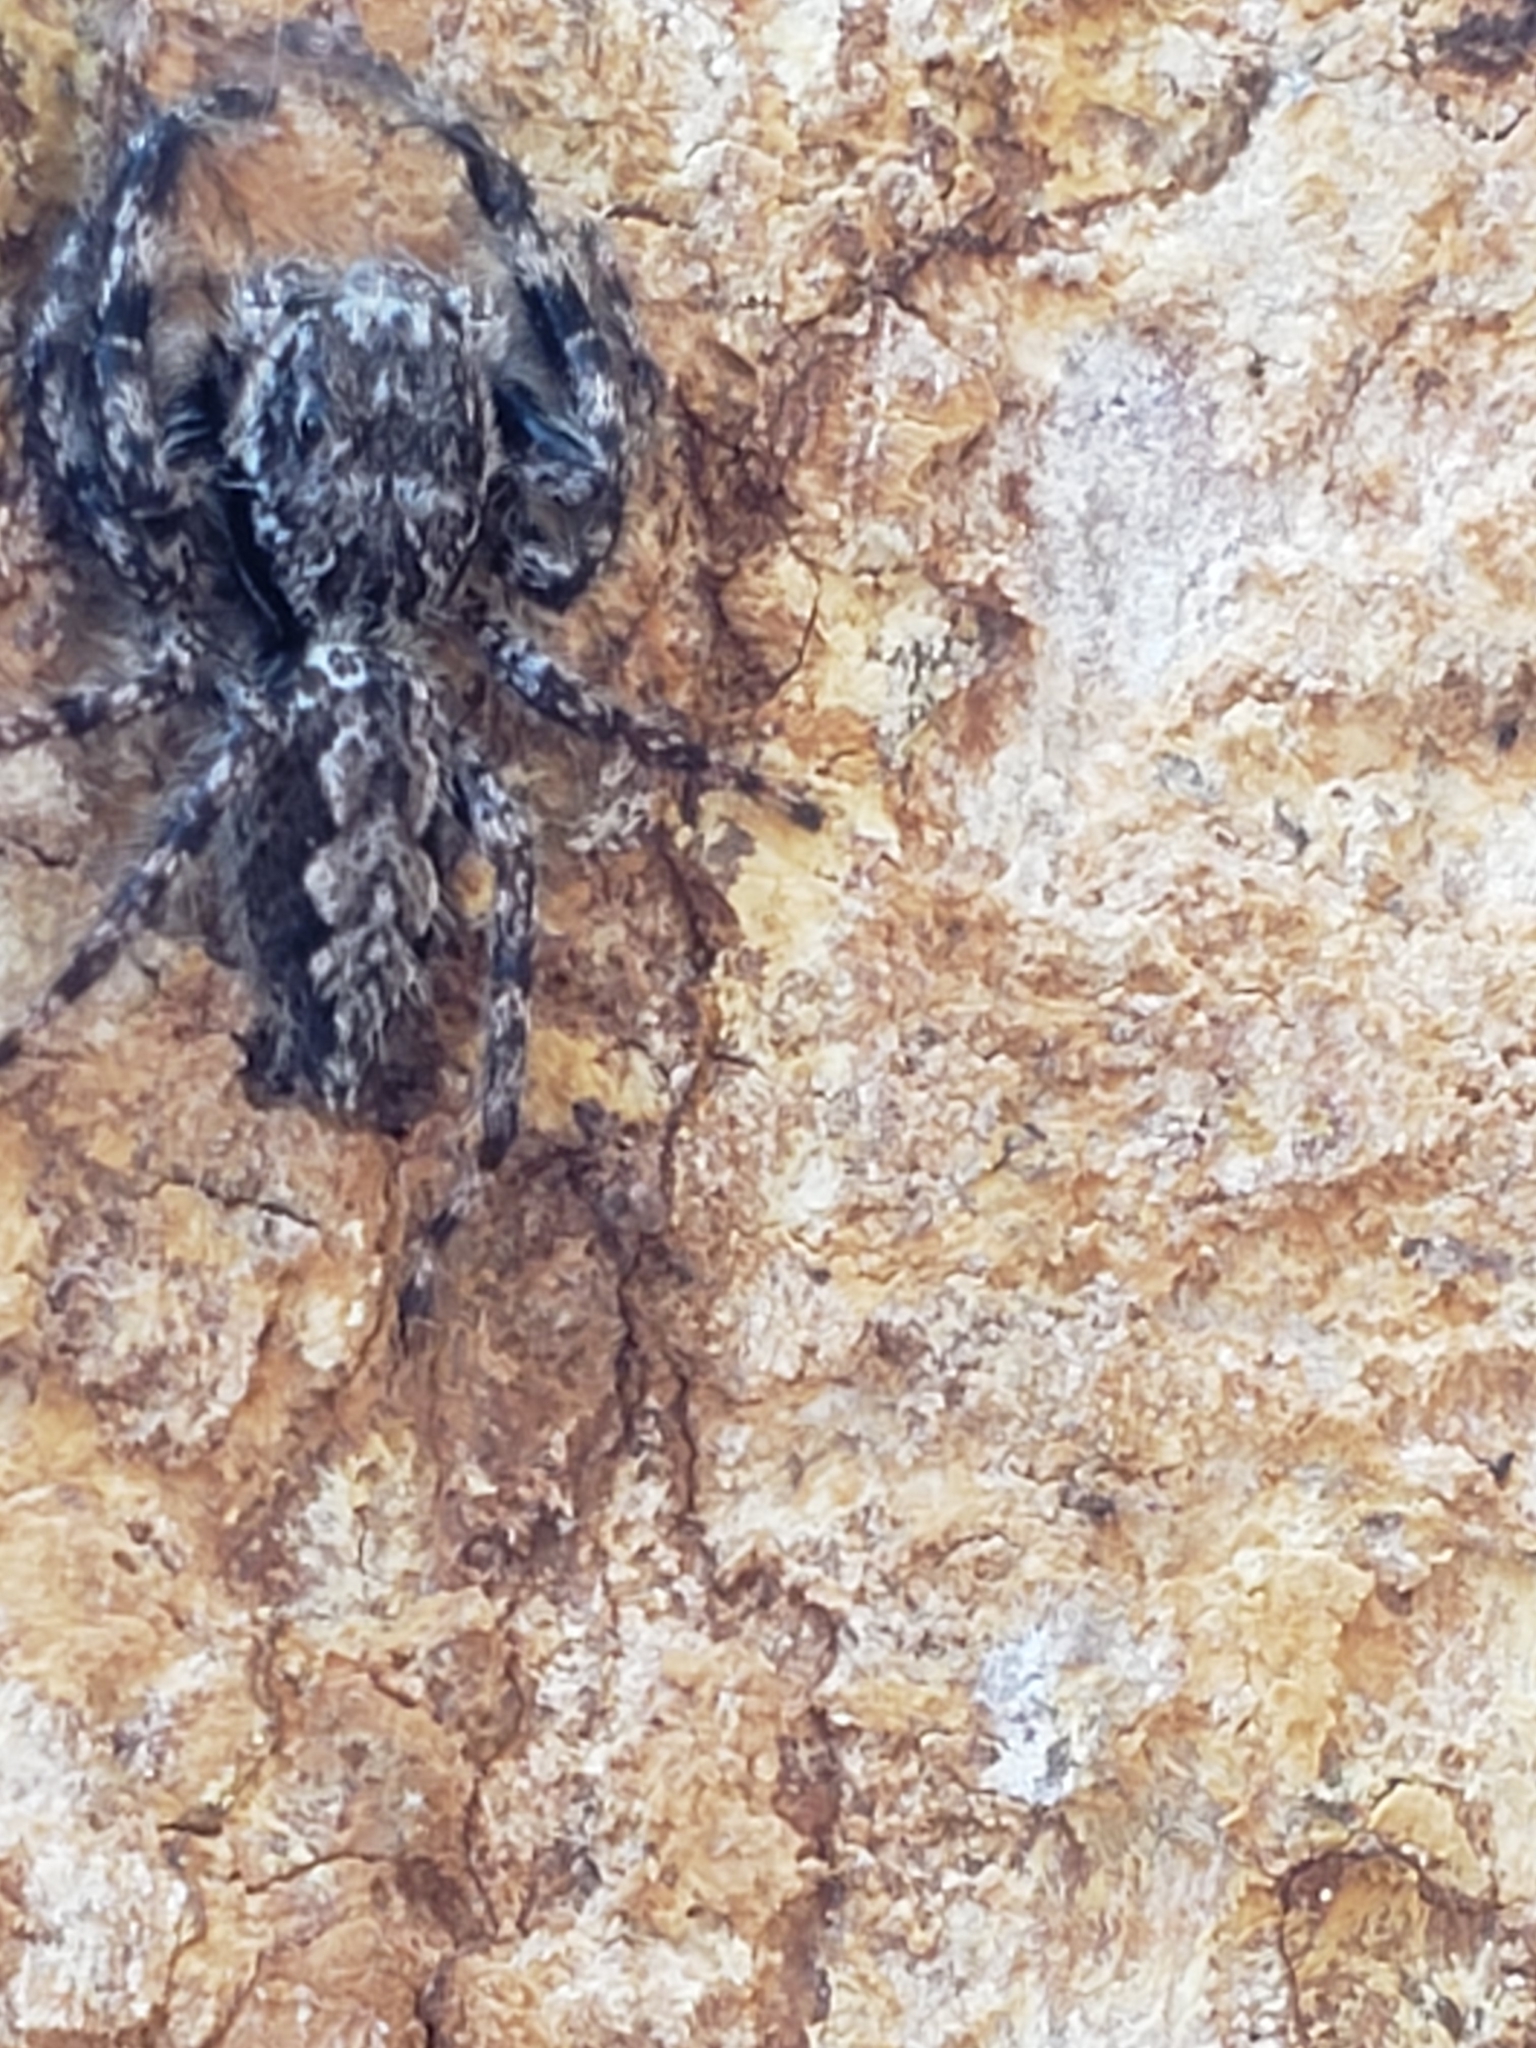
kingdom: Animalia
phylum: Arthropoda
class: Arachnida
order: Araneae
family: Salticidae
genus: Platycryptus
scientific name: Platycryptus undatus
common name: Tan jumping spider
